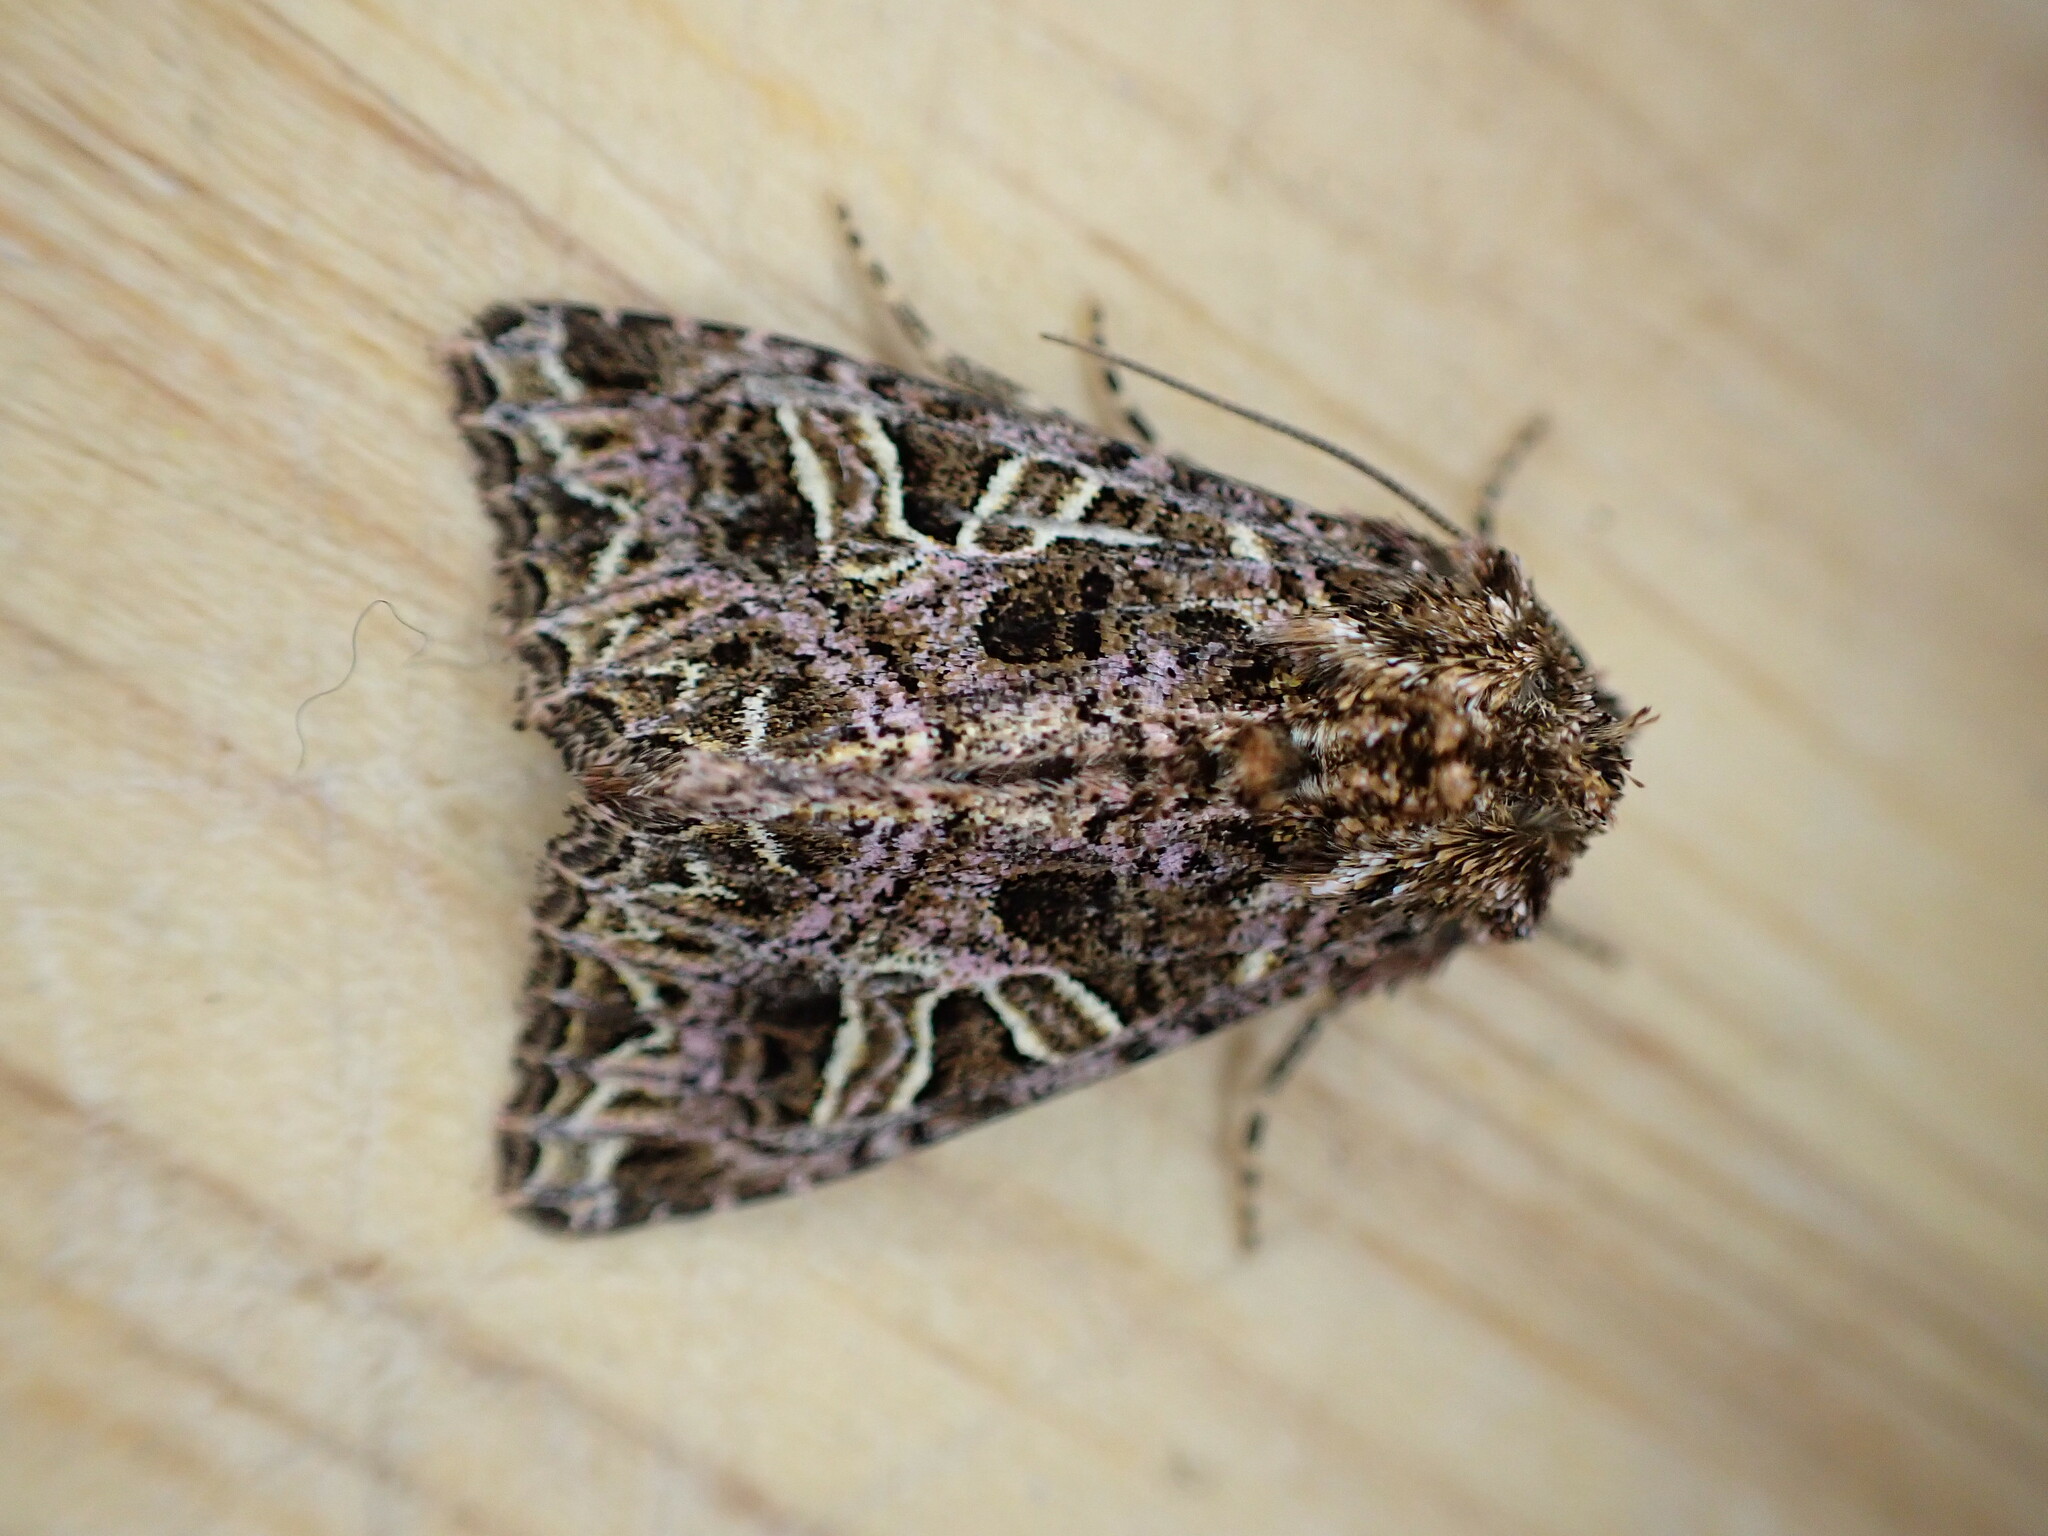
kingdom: Animalia
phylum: Arthropoda
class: Insecta
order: Lepidoptera
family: Noctuidae
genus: Sideridis
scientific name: Sideridis rivularis
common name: Campion
